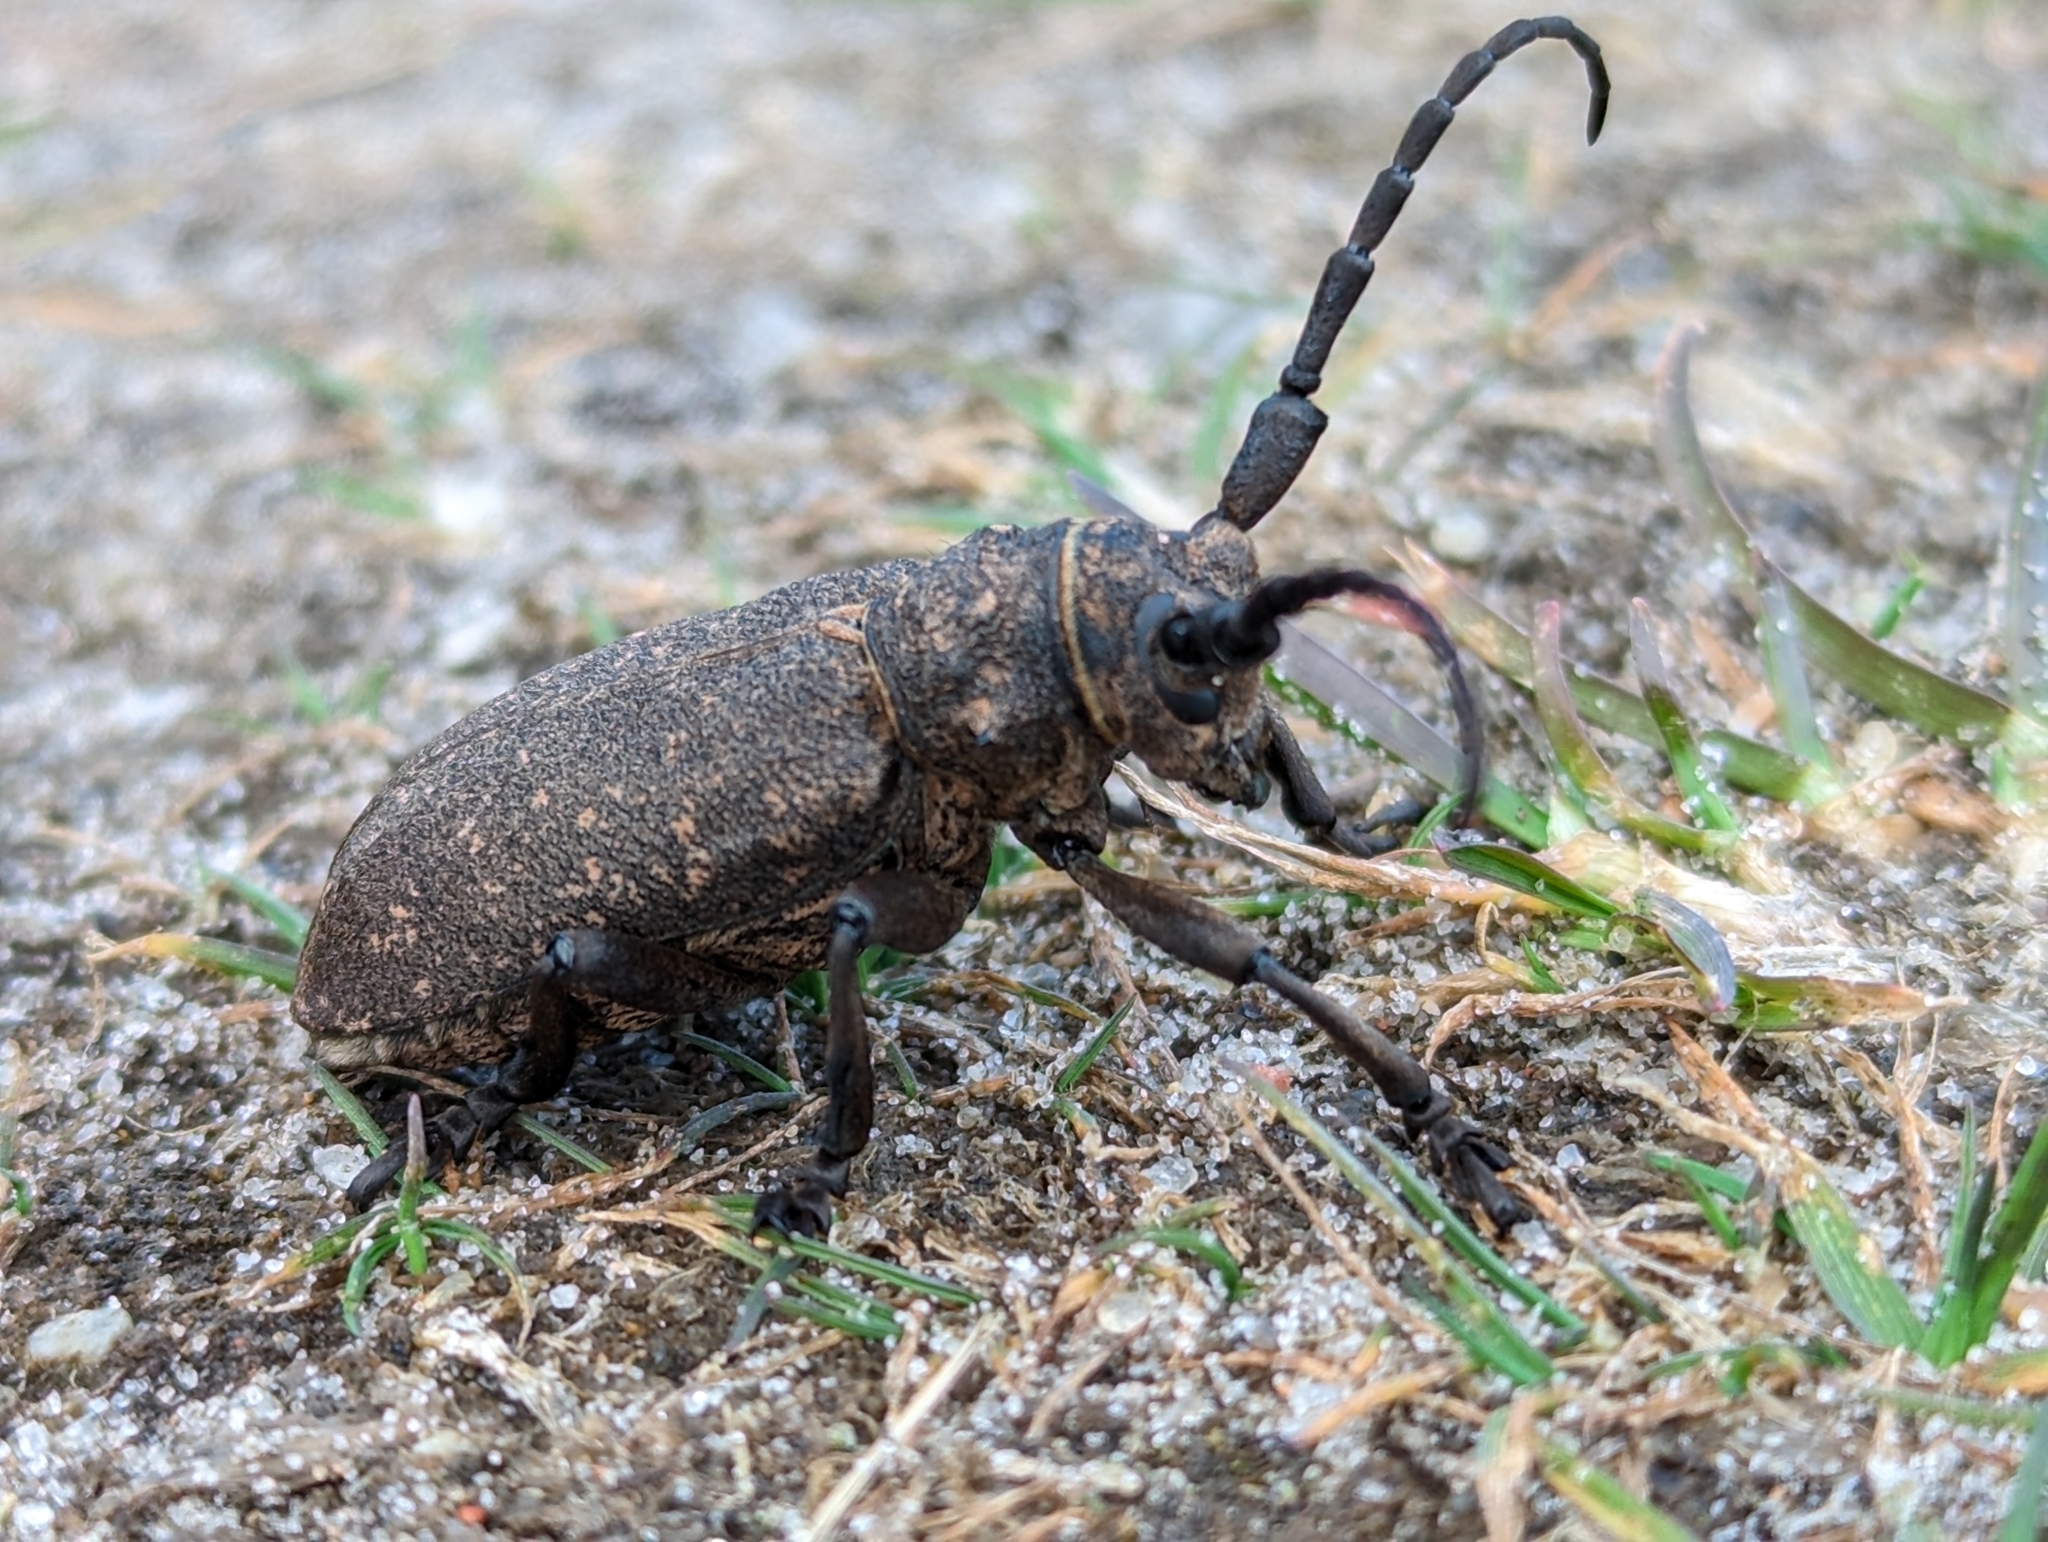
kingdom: Animalia
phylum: Arthropoda
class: Insecta
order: Coleoptera
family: Cerambycidae
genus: Lamia
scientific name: Lamia textor
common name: Weaver beetle
